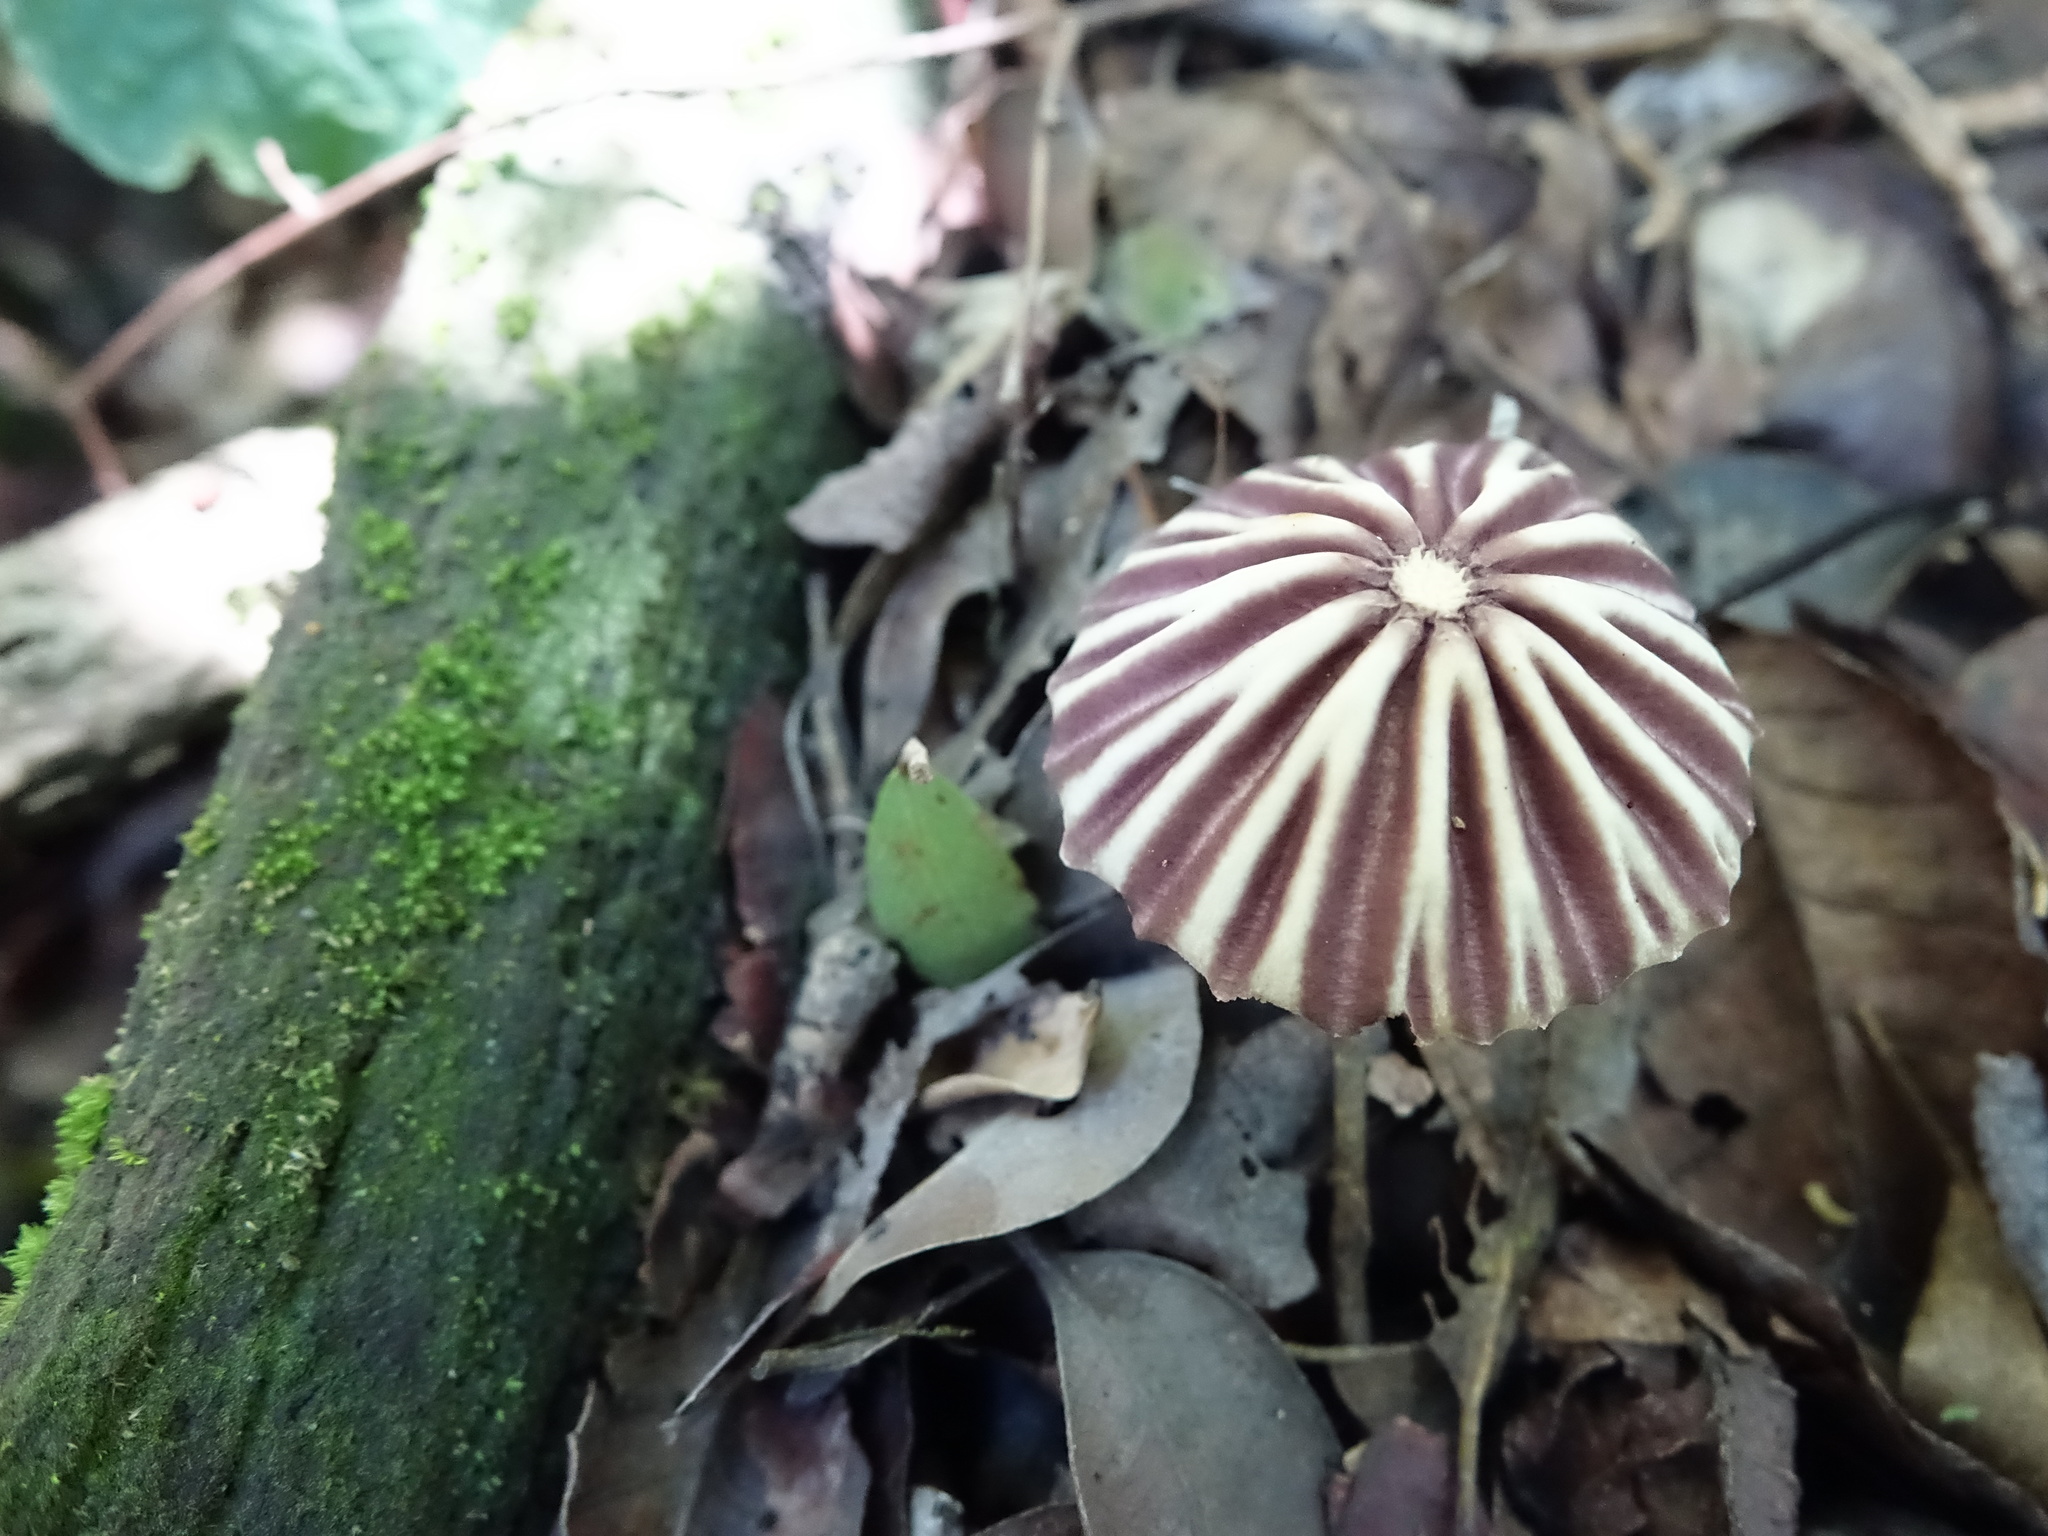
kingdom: Fungi
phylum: Basidiomycota
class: Agaricomycetes
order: Agaricales
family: Marasmiaceae
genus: Marasmius
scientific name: Marasmius bekolacongoli
